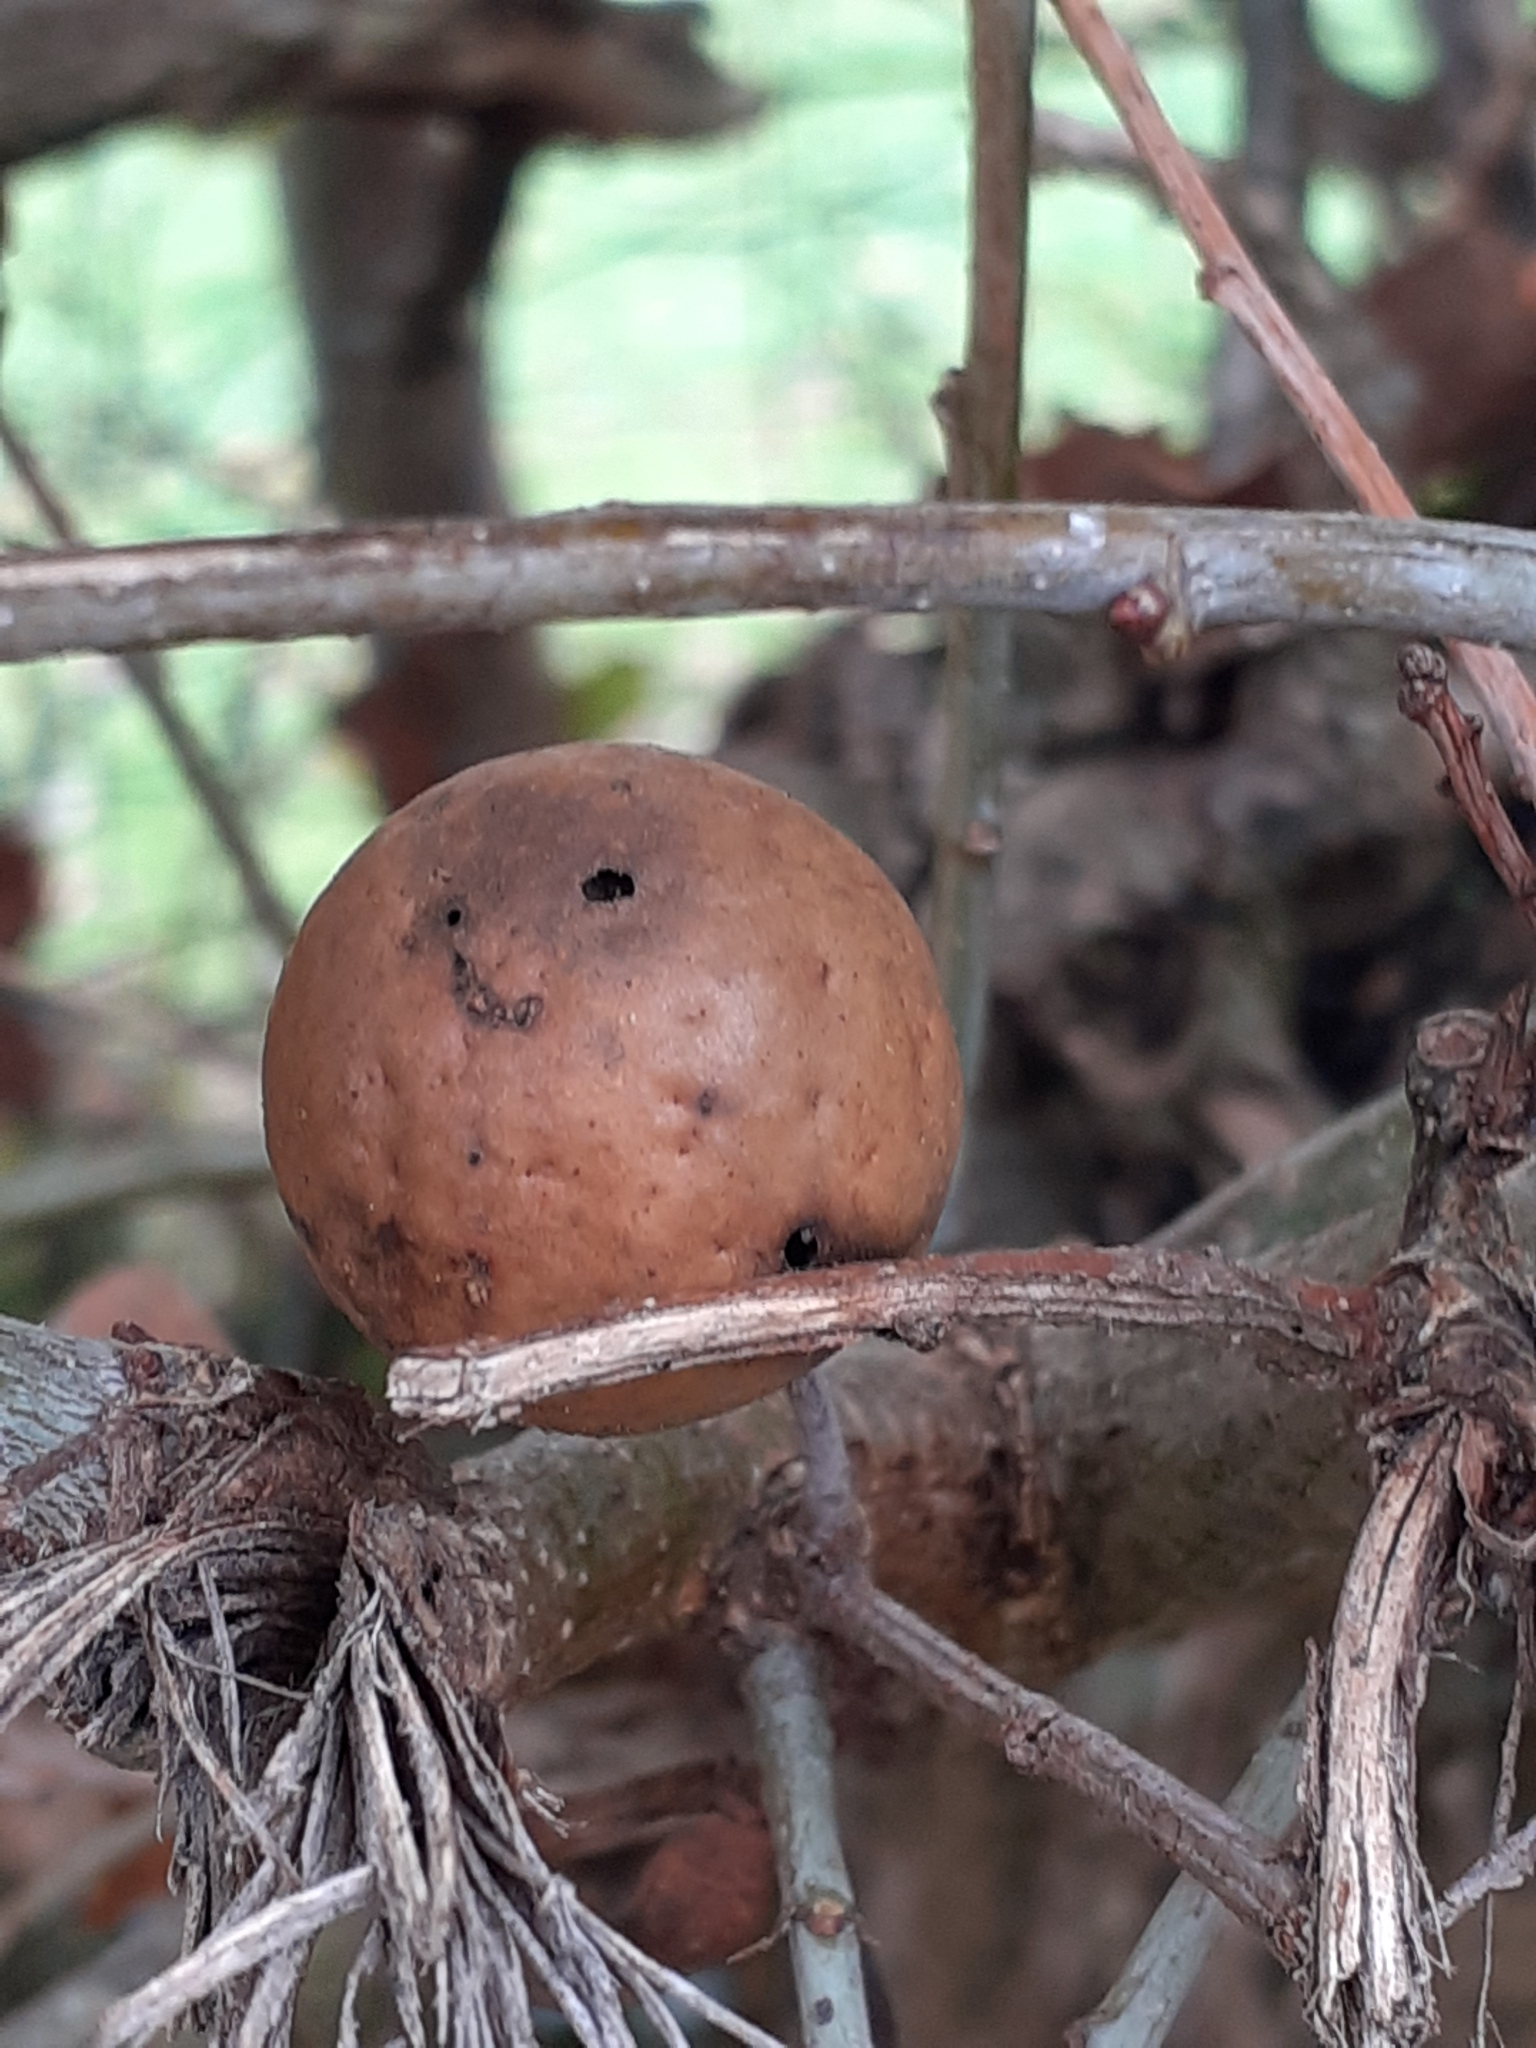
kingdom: Animalia
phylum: Arthropoda
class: Insecta
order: Hymenoptera
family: Cynipidae
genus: Andricus
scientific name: Andricus kollari
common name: Marble gall
